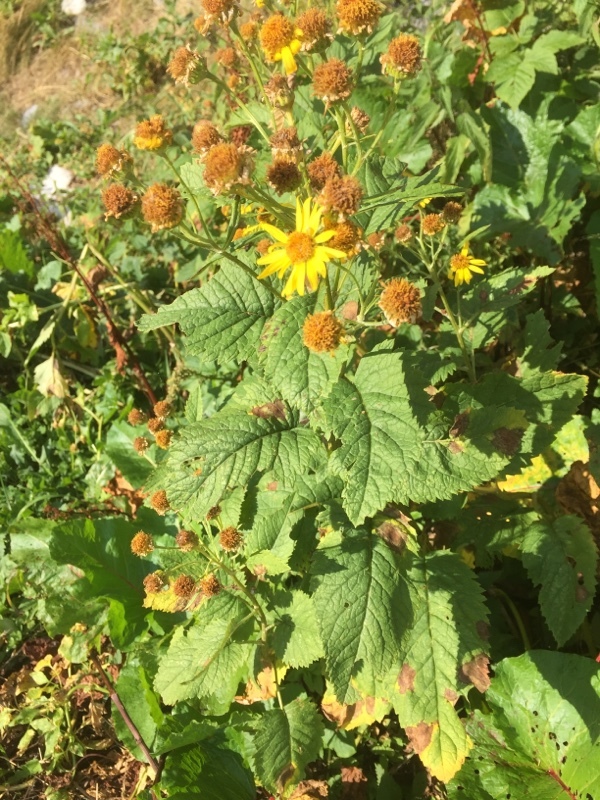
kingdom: Plantae
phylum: Tracheophyta
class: Magnoliopsida
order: Asterales
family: Asteraceae
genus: Jacobaea
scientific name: Jacobaea alpina
